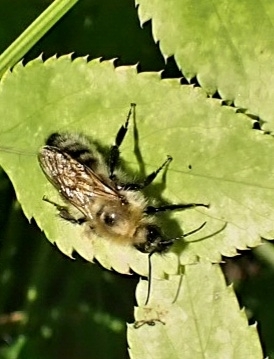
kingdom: Animalia
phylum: Arthropoda
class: Insecta
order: Hymenoptera
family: Apidae
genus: Bombus
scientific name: Bombus consobrinus
